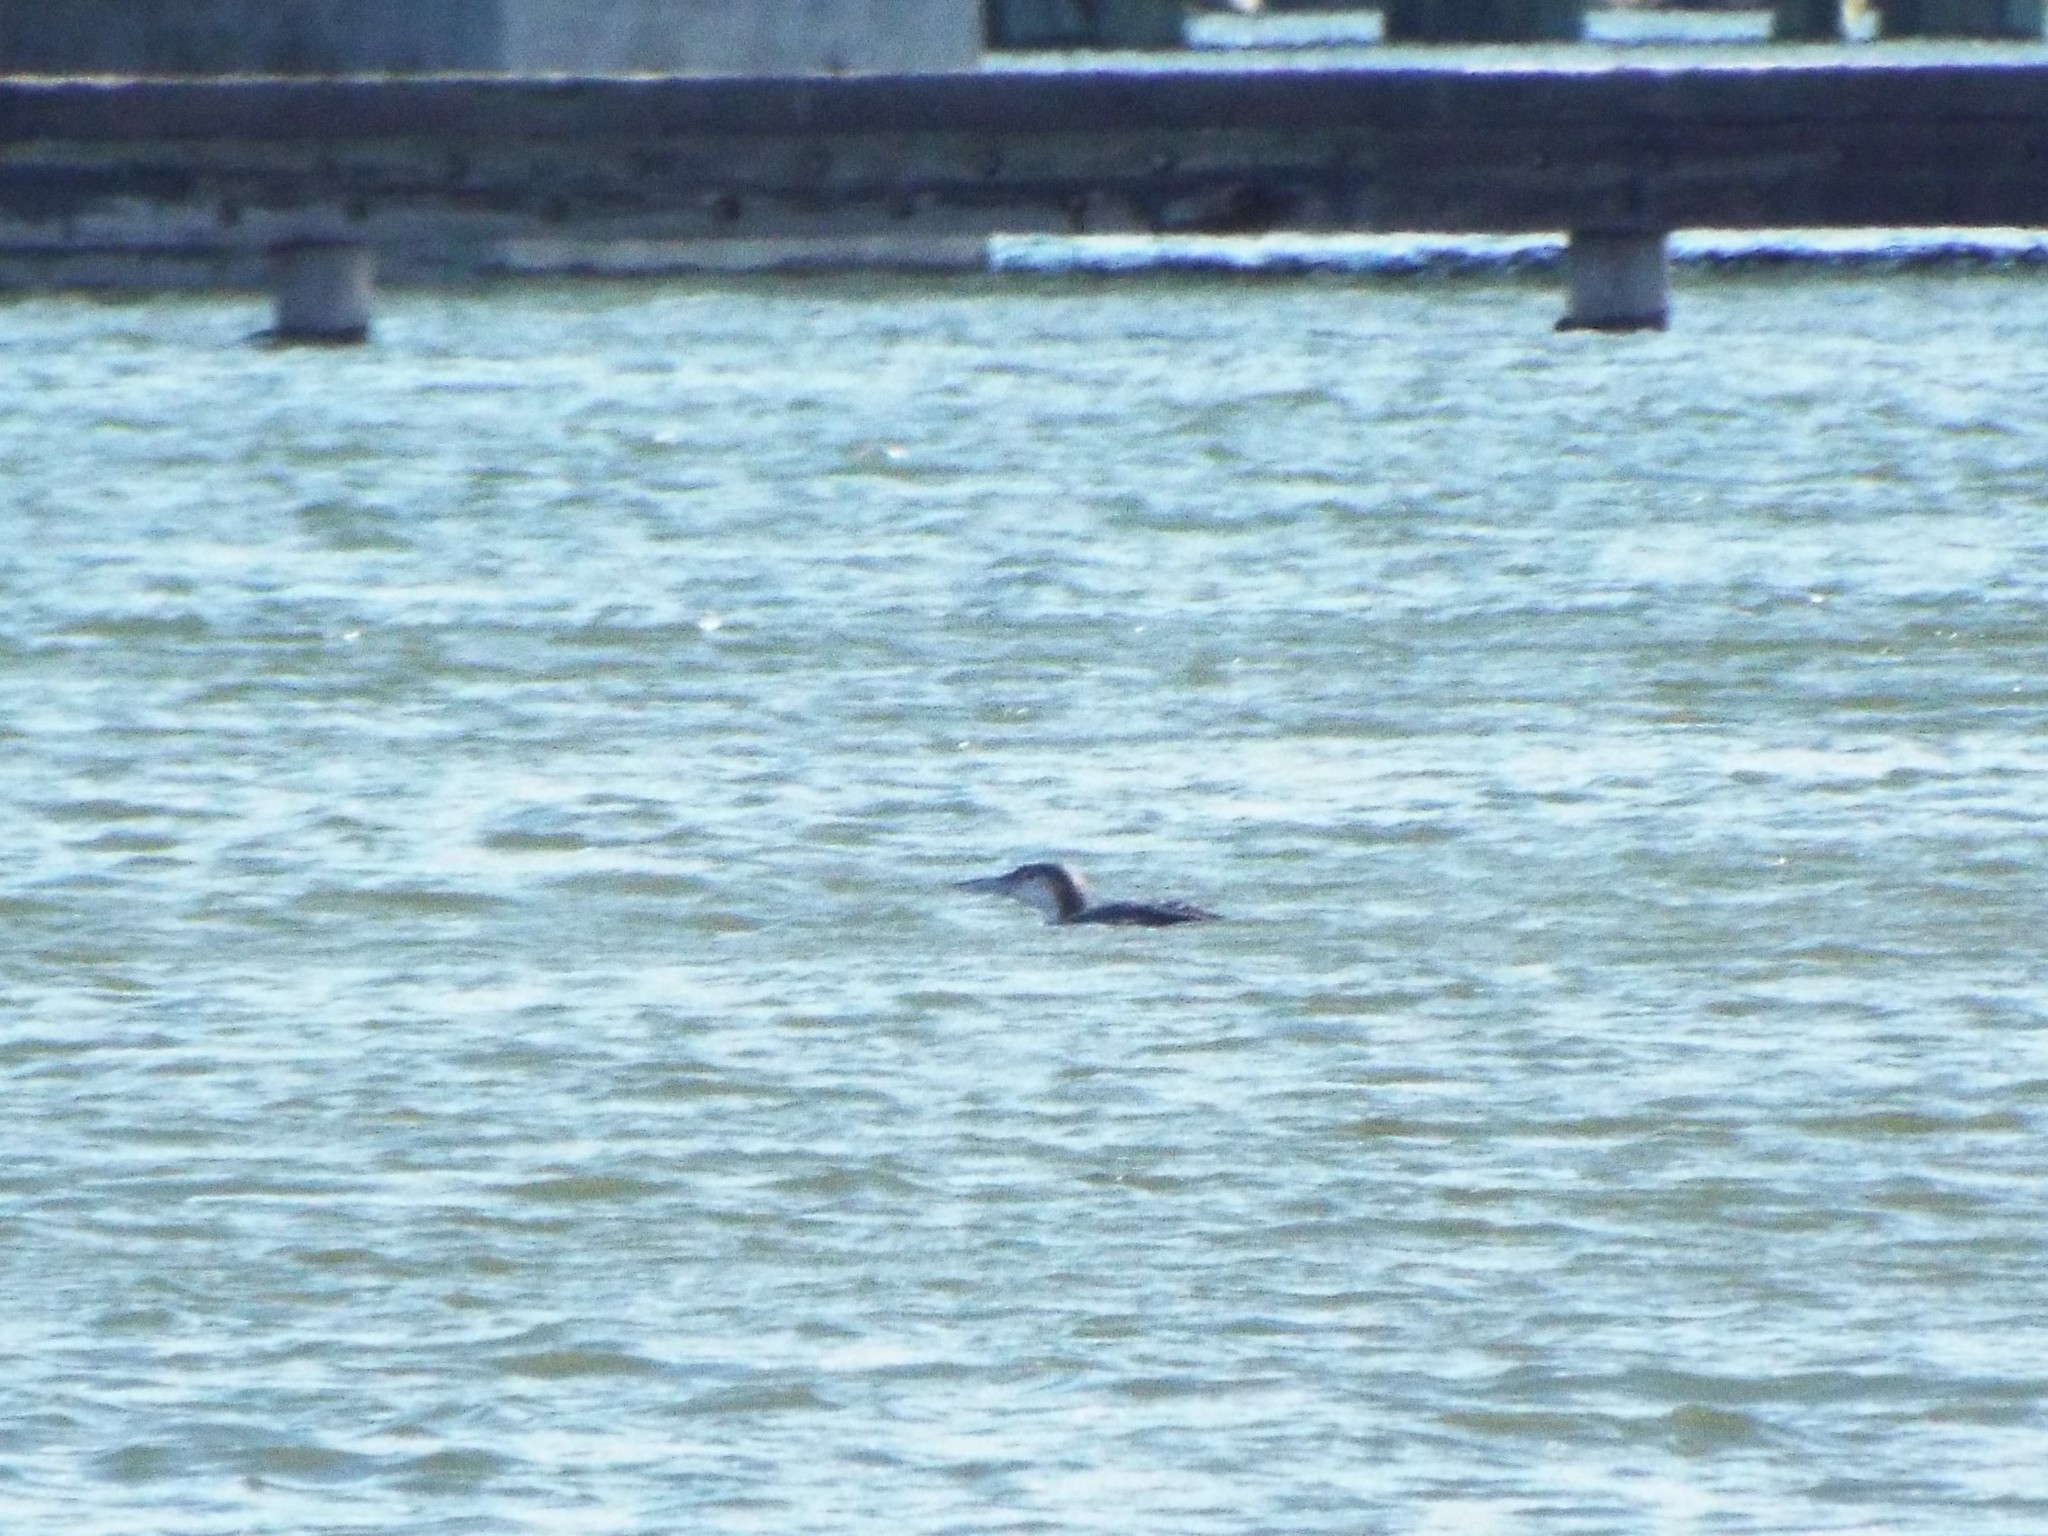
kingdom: Animalia
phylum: Chordata
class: Aves
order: Gaviiformes
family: Gaviidae
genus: Gavia
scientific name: Gavia immer
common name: Common loon
